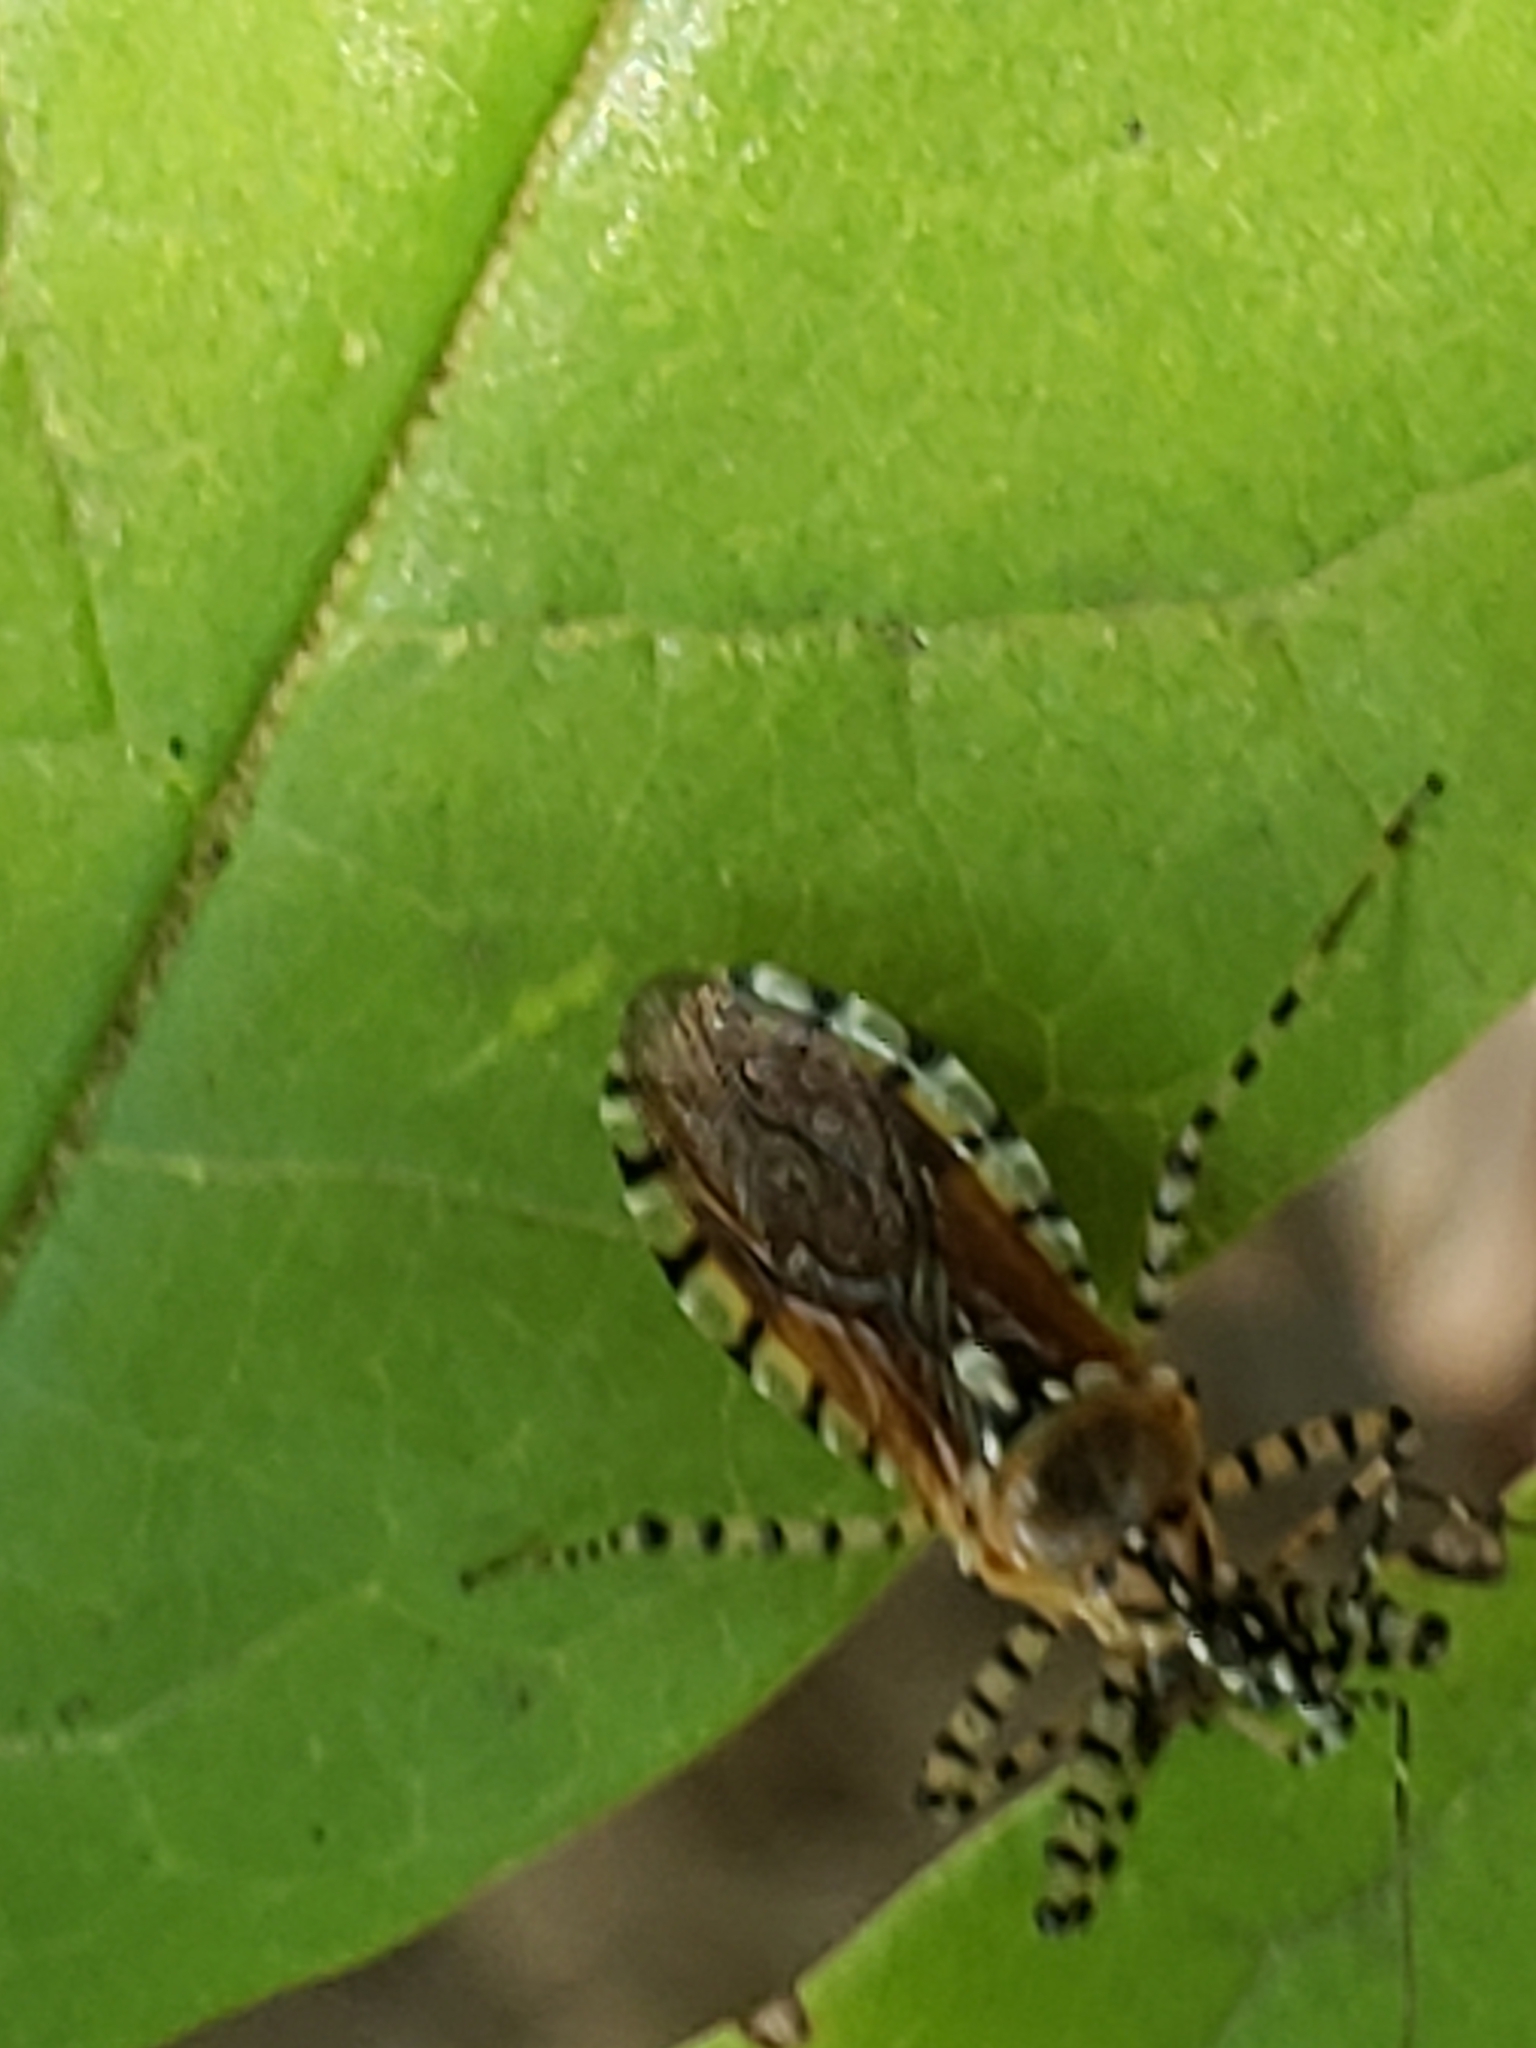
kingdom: Animalia
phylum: Arthropoda
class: Insecta
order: Hemiptera
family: Reduviidae
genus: Pselliopus
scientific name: Pselliopus cinctus
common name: Ringed assassin bug
